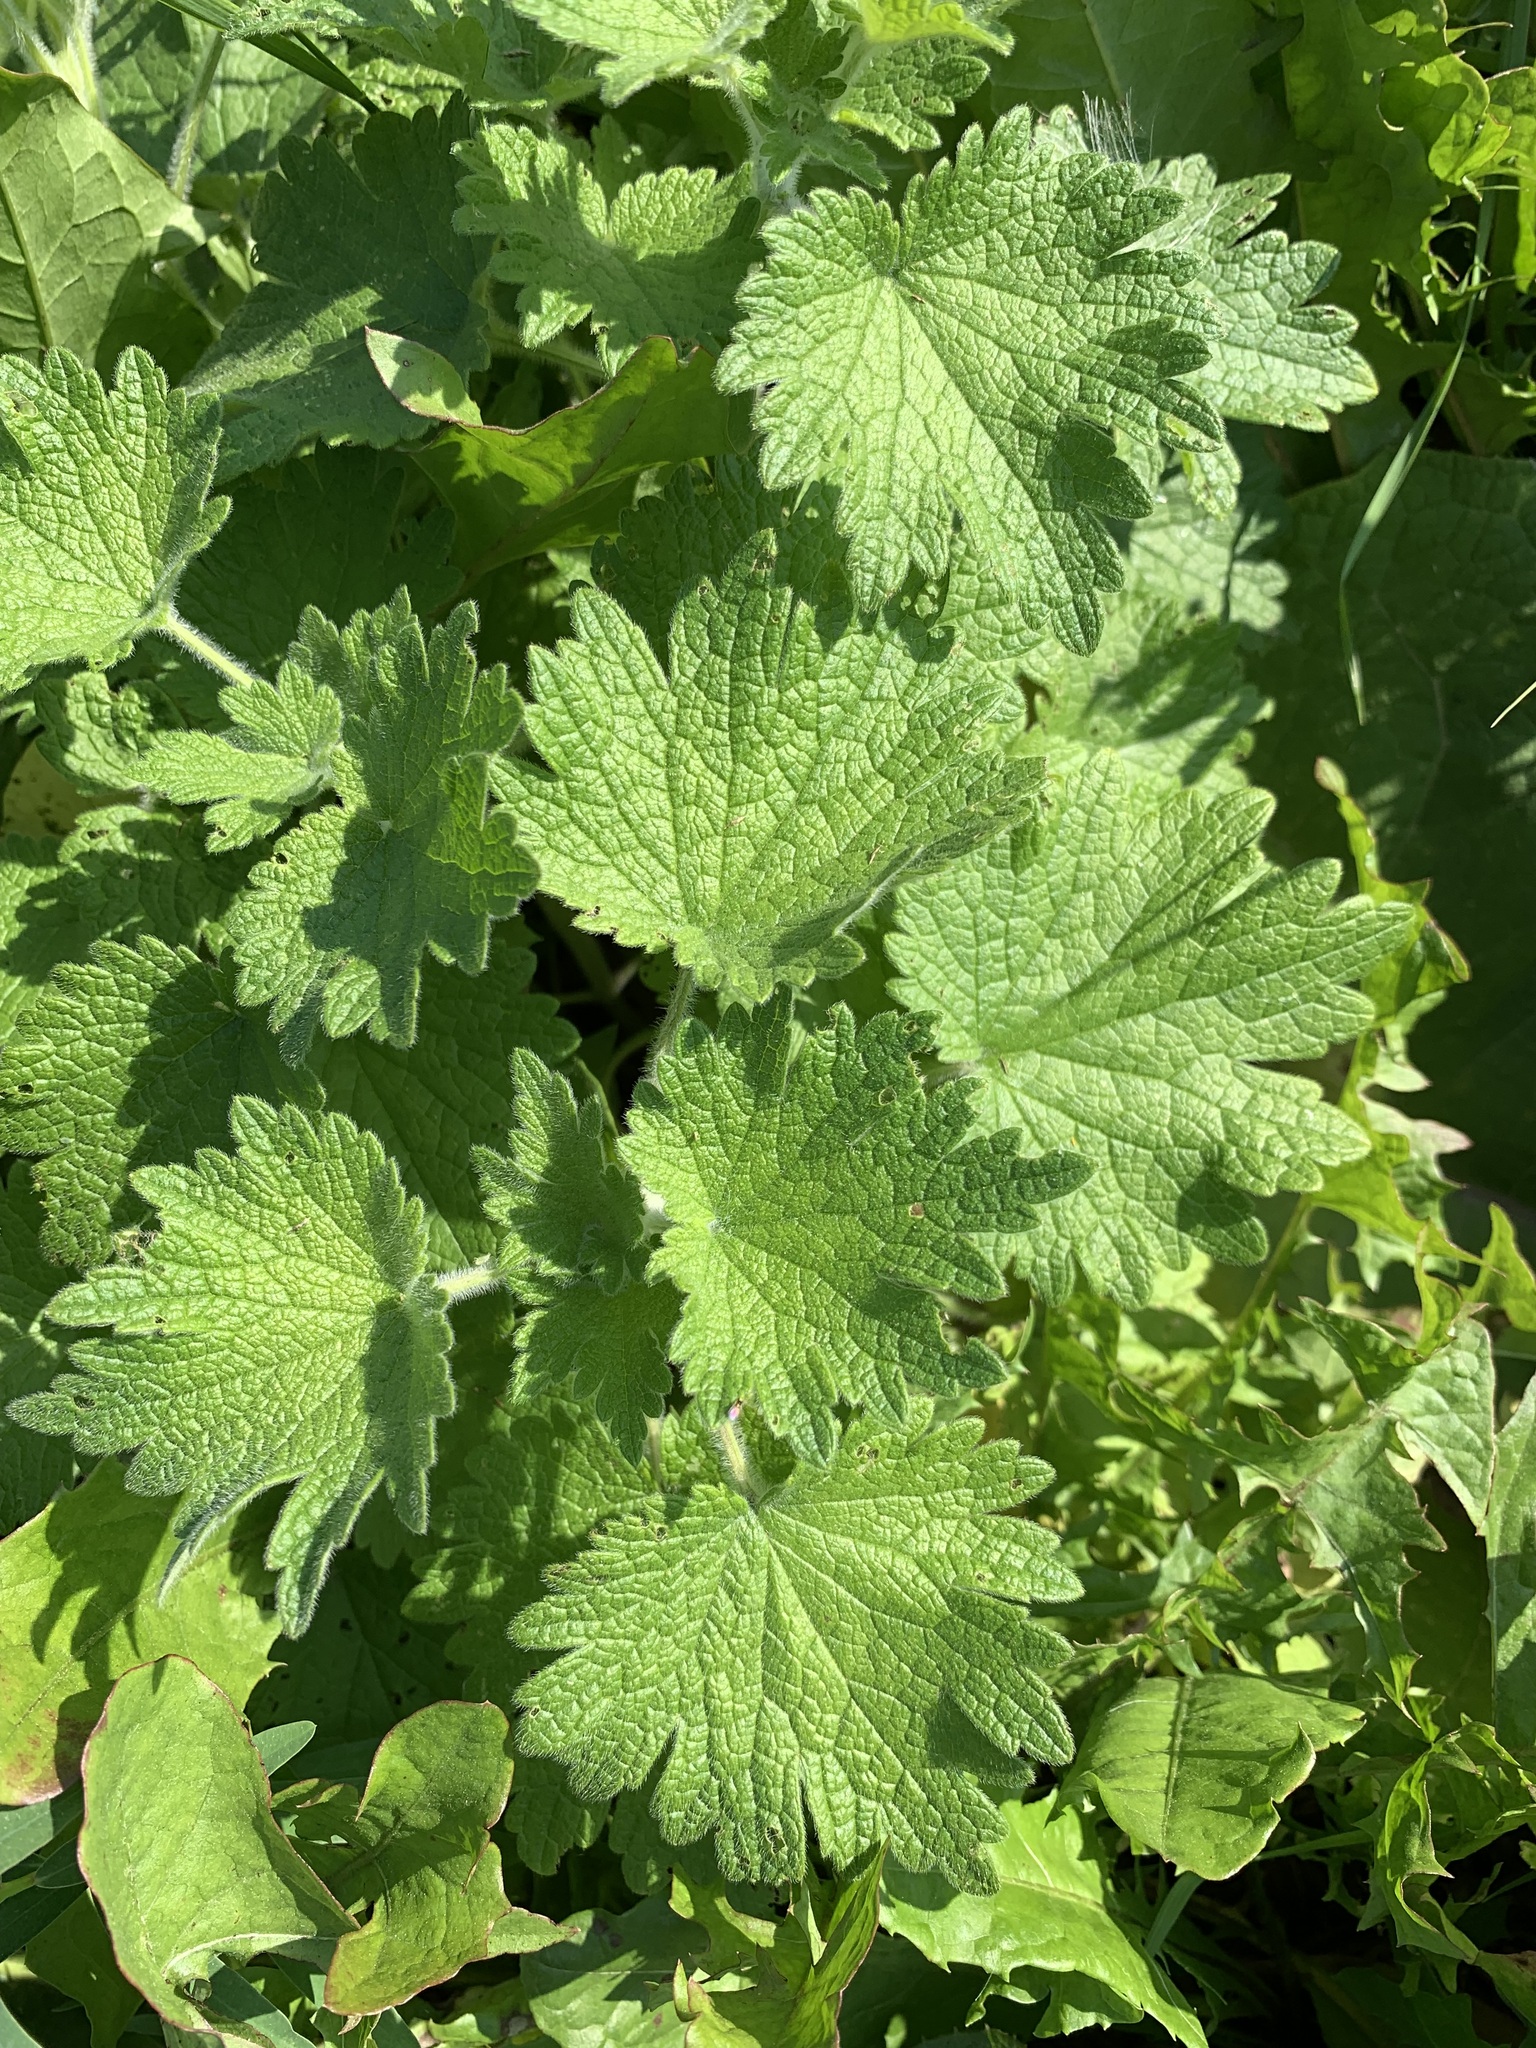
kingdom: Plantae
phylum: Tracheophyta
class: Magnoliopsida
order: Lamiales
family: Lamiaceae
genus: Leonurus
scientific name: Leonurus quinquelobatus
